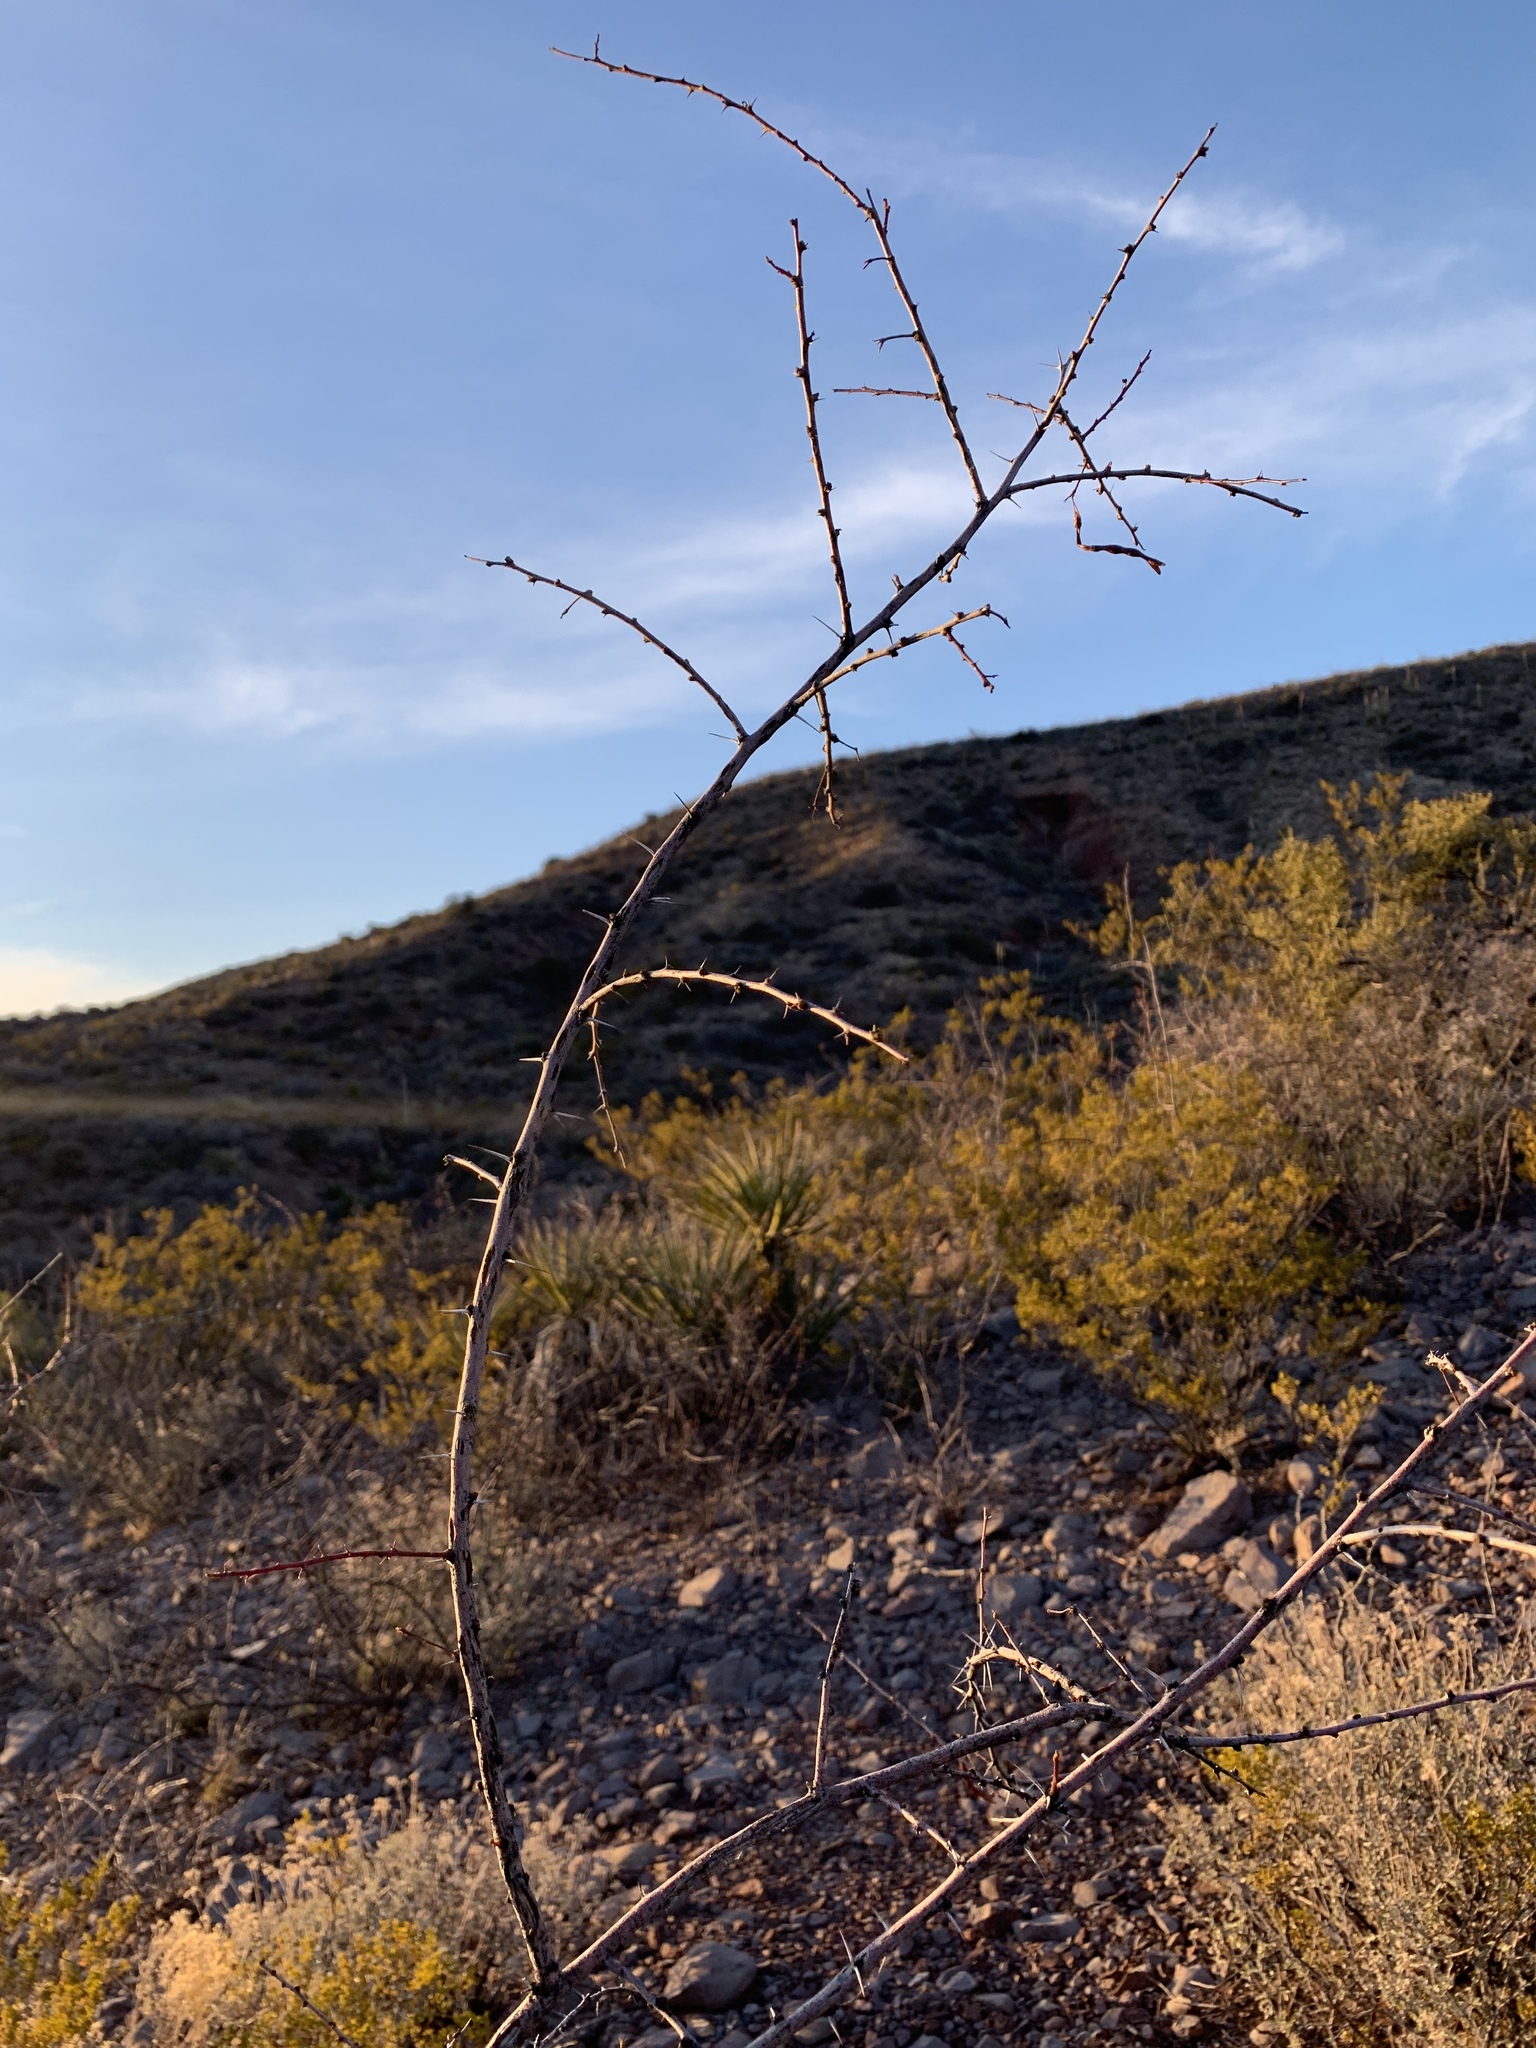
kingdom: Plantae
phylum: Tracheophyta
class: Magnoliopsida
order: Fabales
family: Fabaceae
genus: Vachellia
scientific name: Vachellia constricta
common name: Mescat acacia
